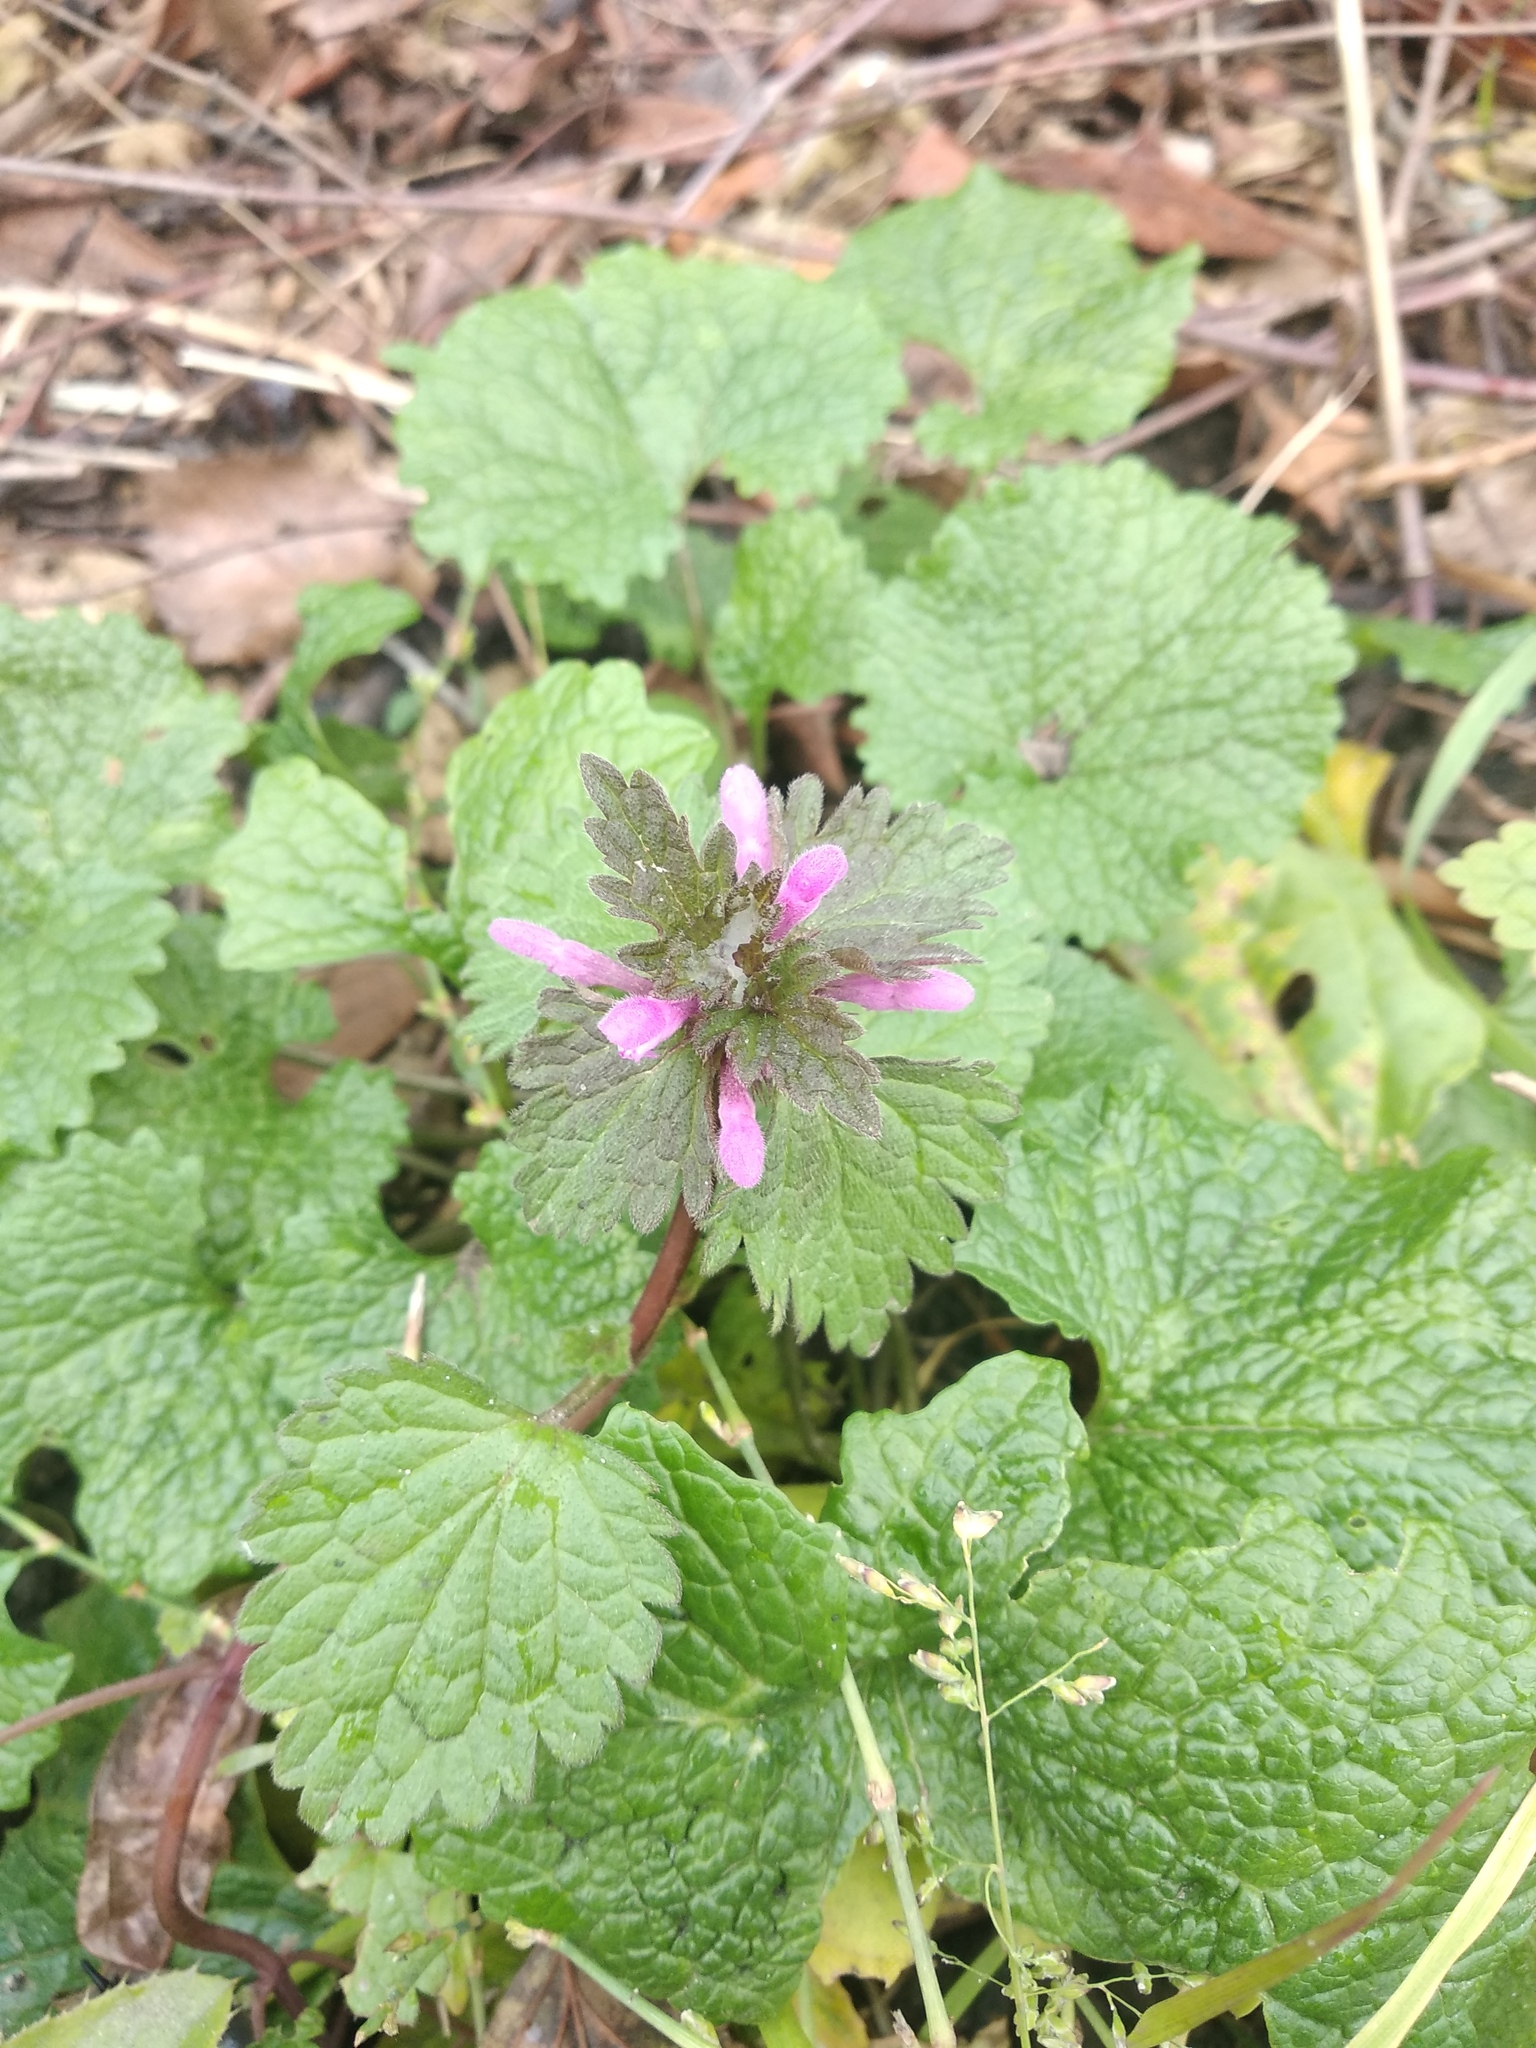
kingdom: Plantae
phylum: Tracheophyta
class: Magnoliopsida
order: Lamiales
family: Lamiaceae
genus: Lamium
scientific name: Lamium purpureum
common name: Red dead-nettle
